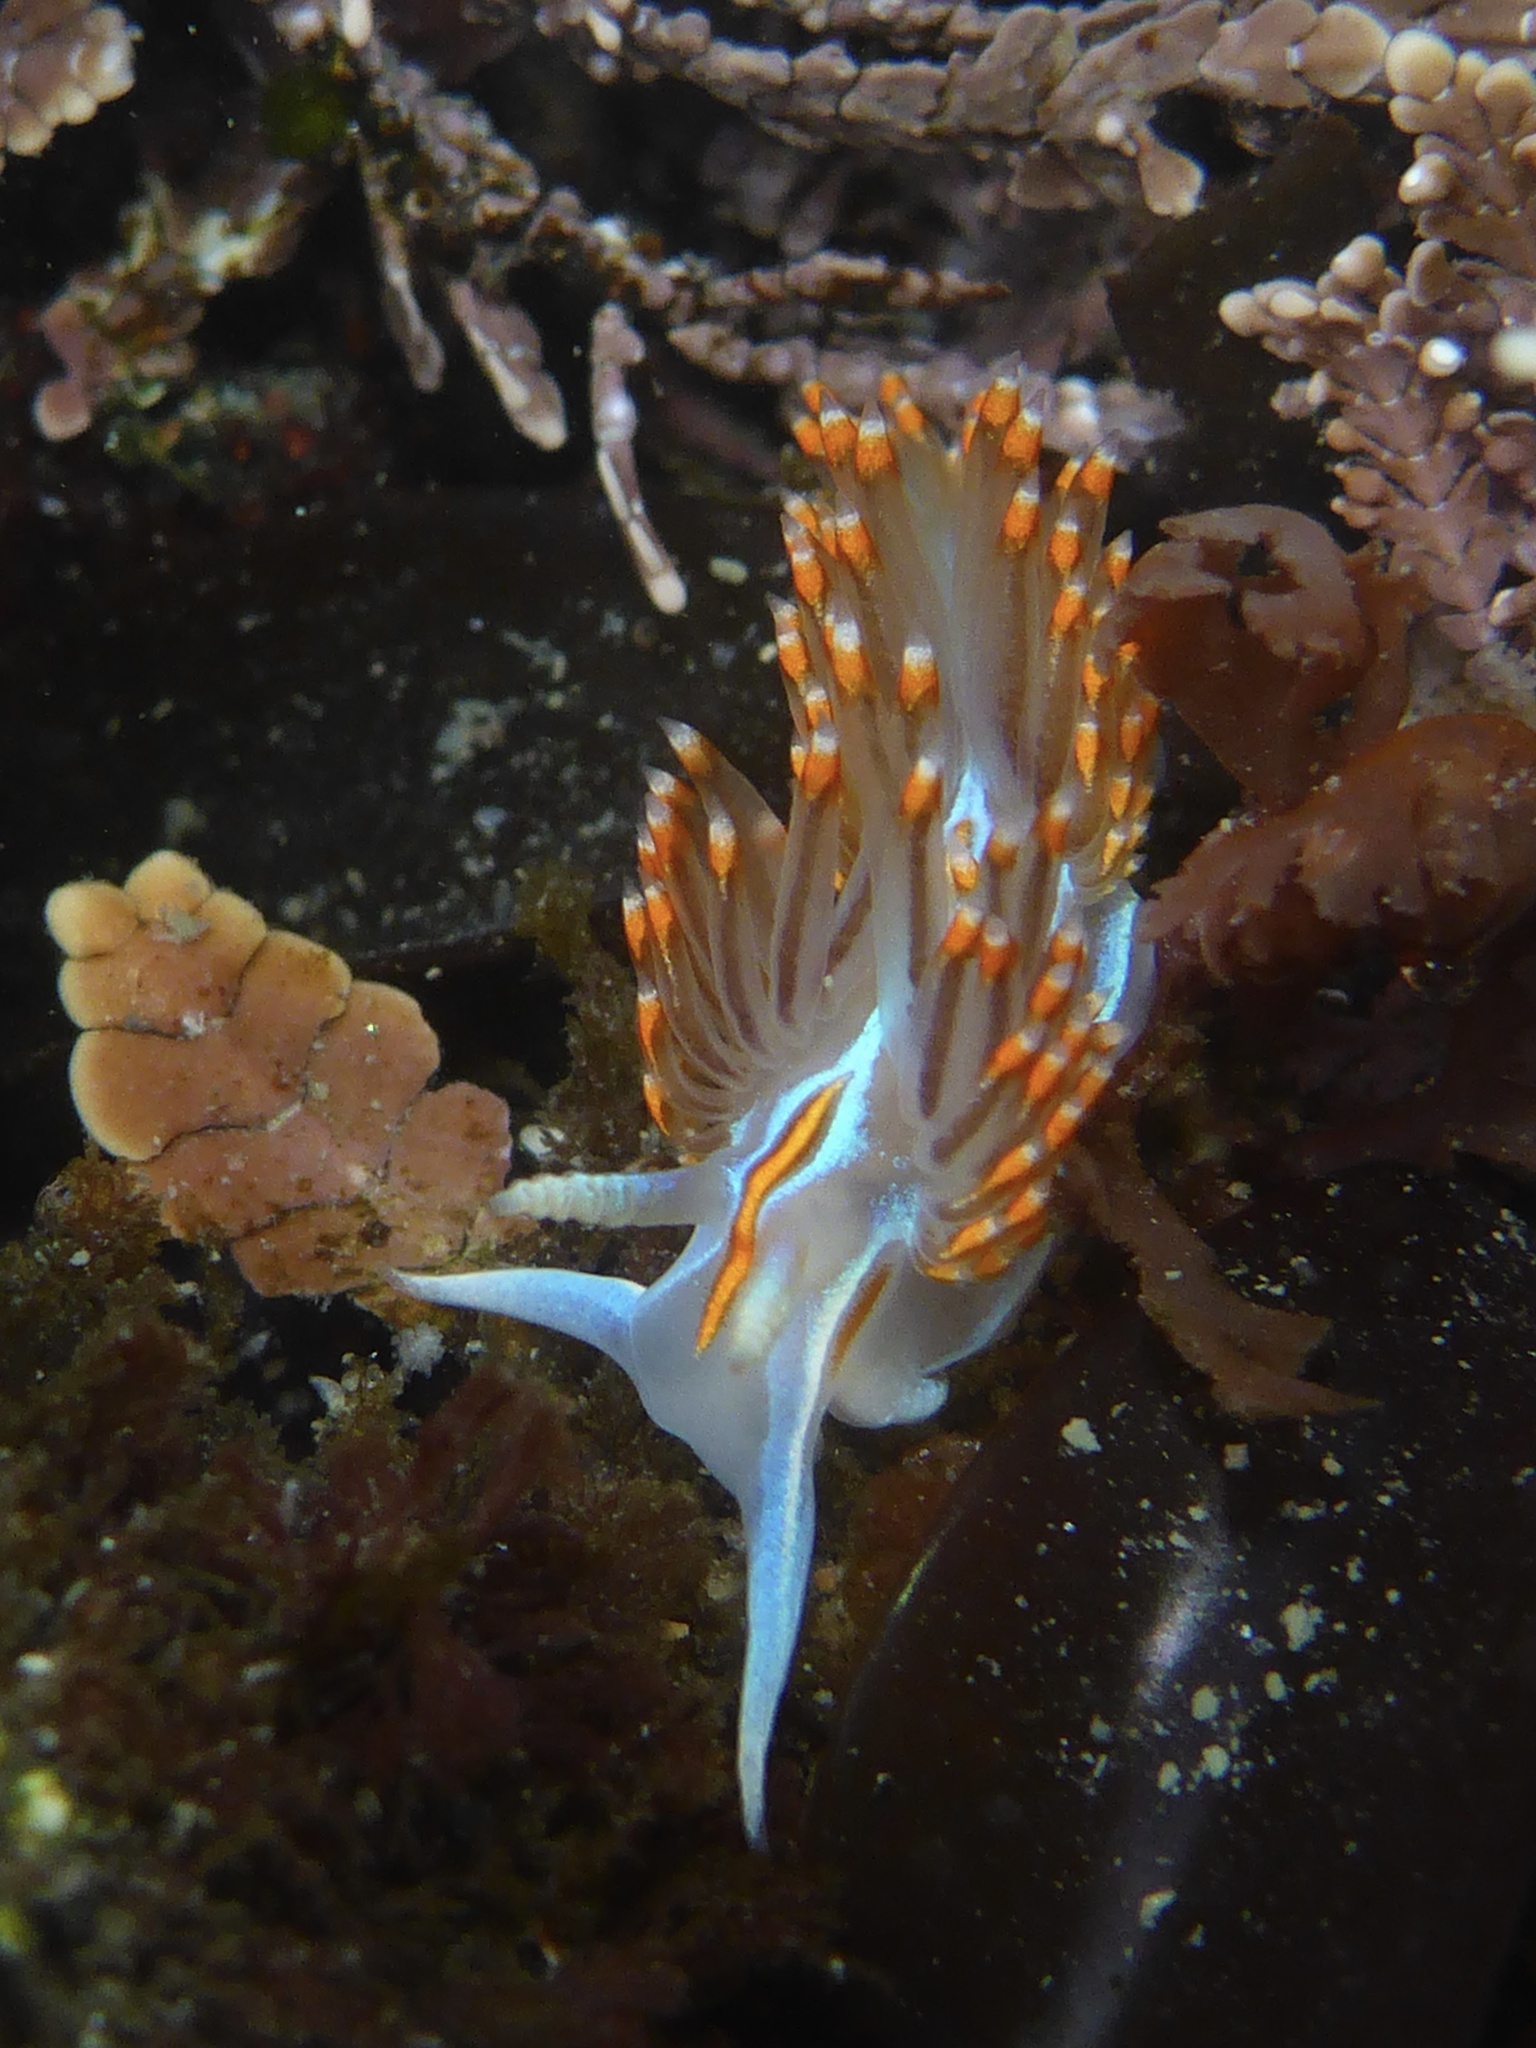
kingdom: Animalia
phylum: Mollusca
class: Gastropoda
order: Nudibranchia
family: Myrrhinidae
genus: Hermissenda
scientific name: Hermissenda opalescens
